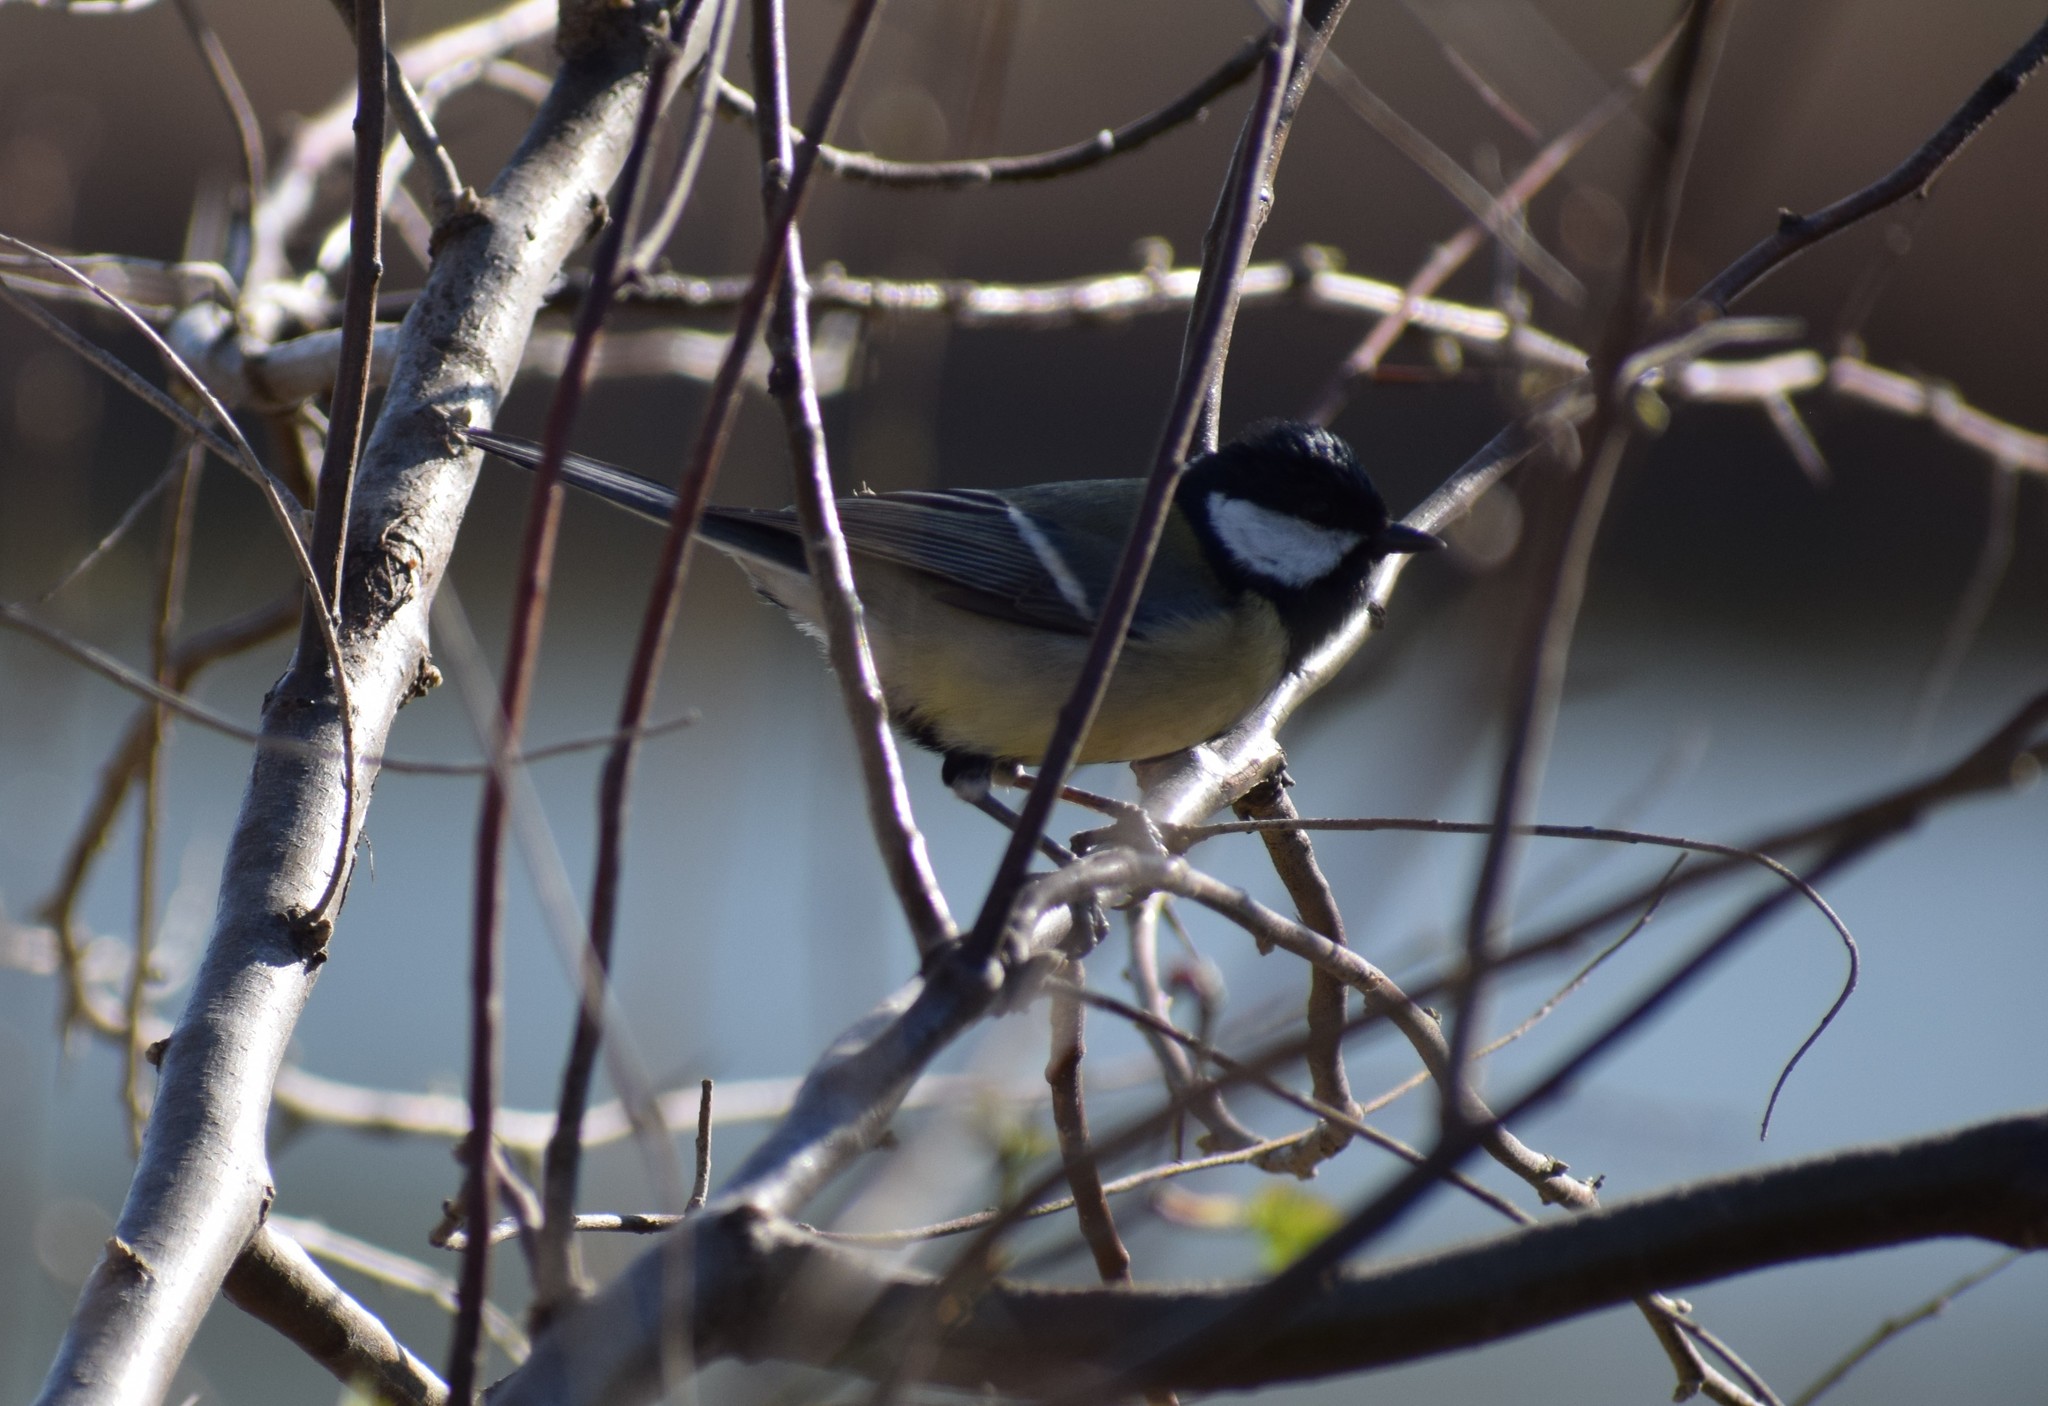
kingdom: Animalia
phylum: Chordata
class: Aves
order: Passeriformes
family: Paridae
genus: Parus
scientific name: Parus major
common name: Great tit
